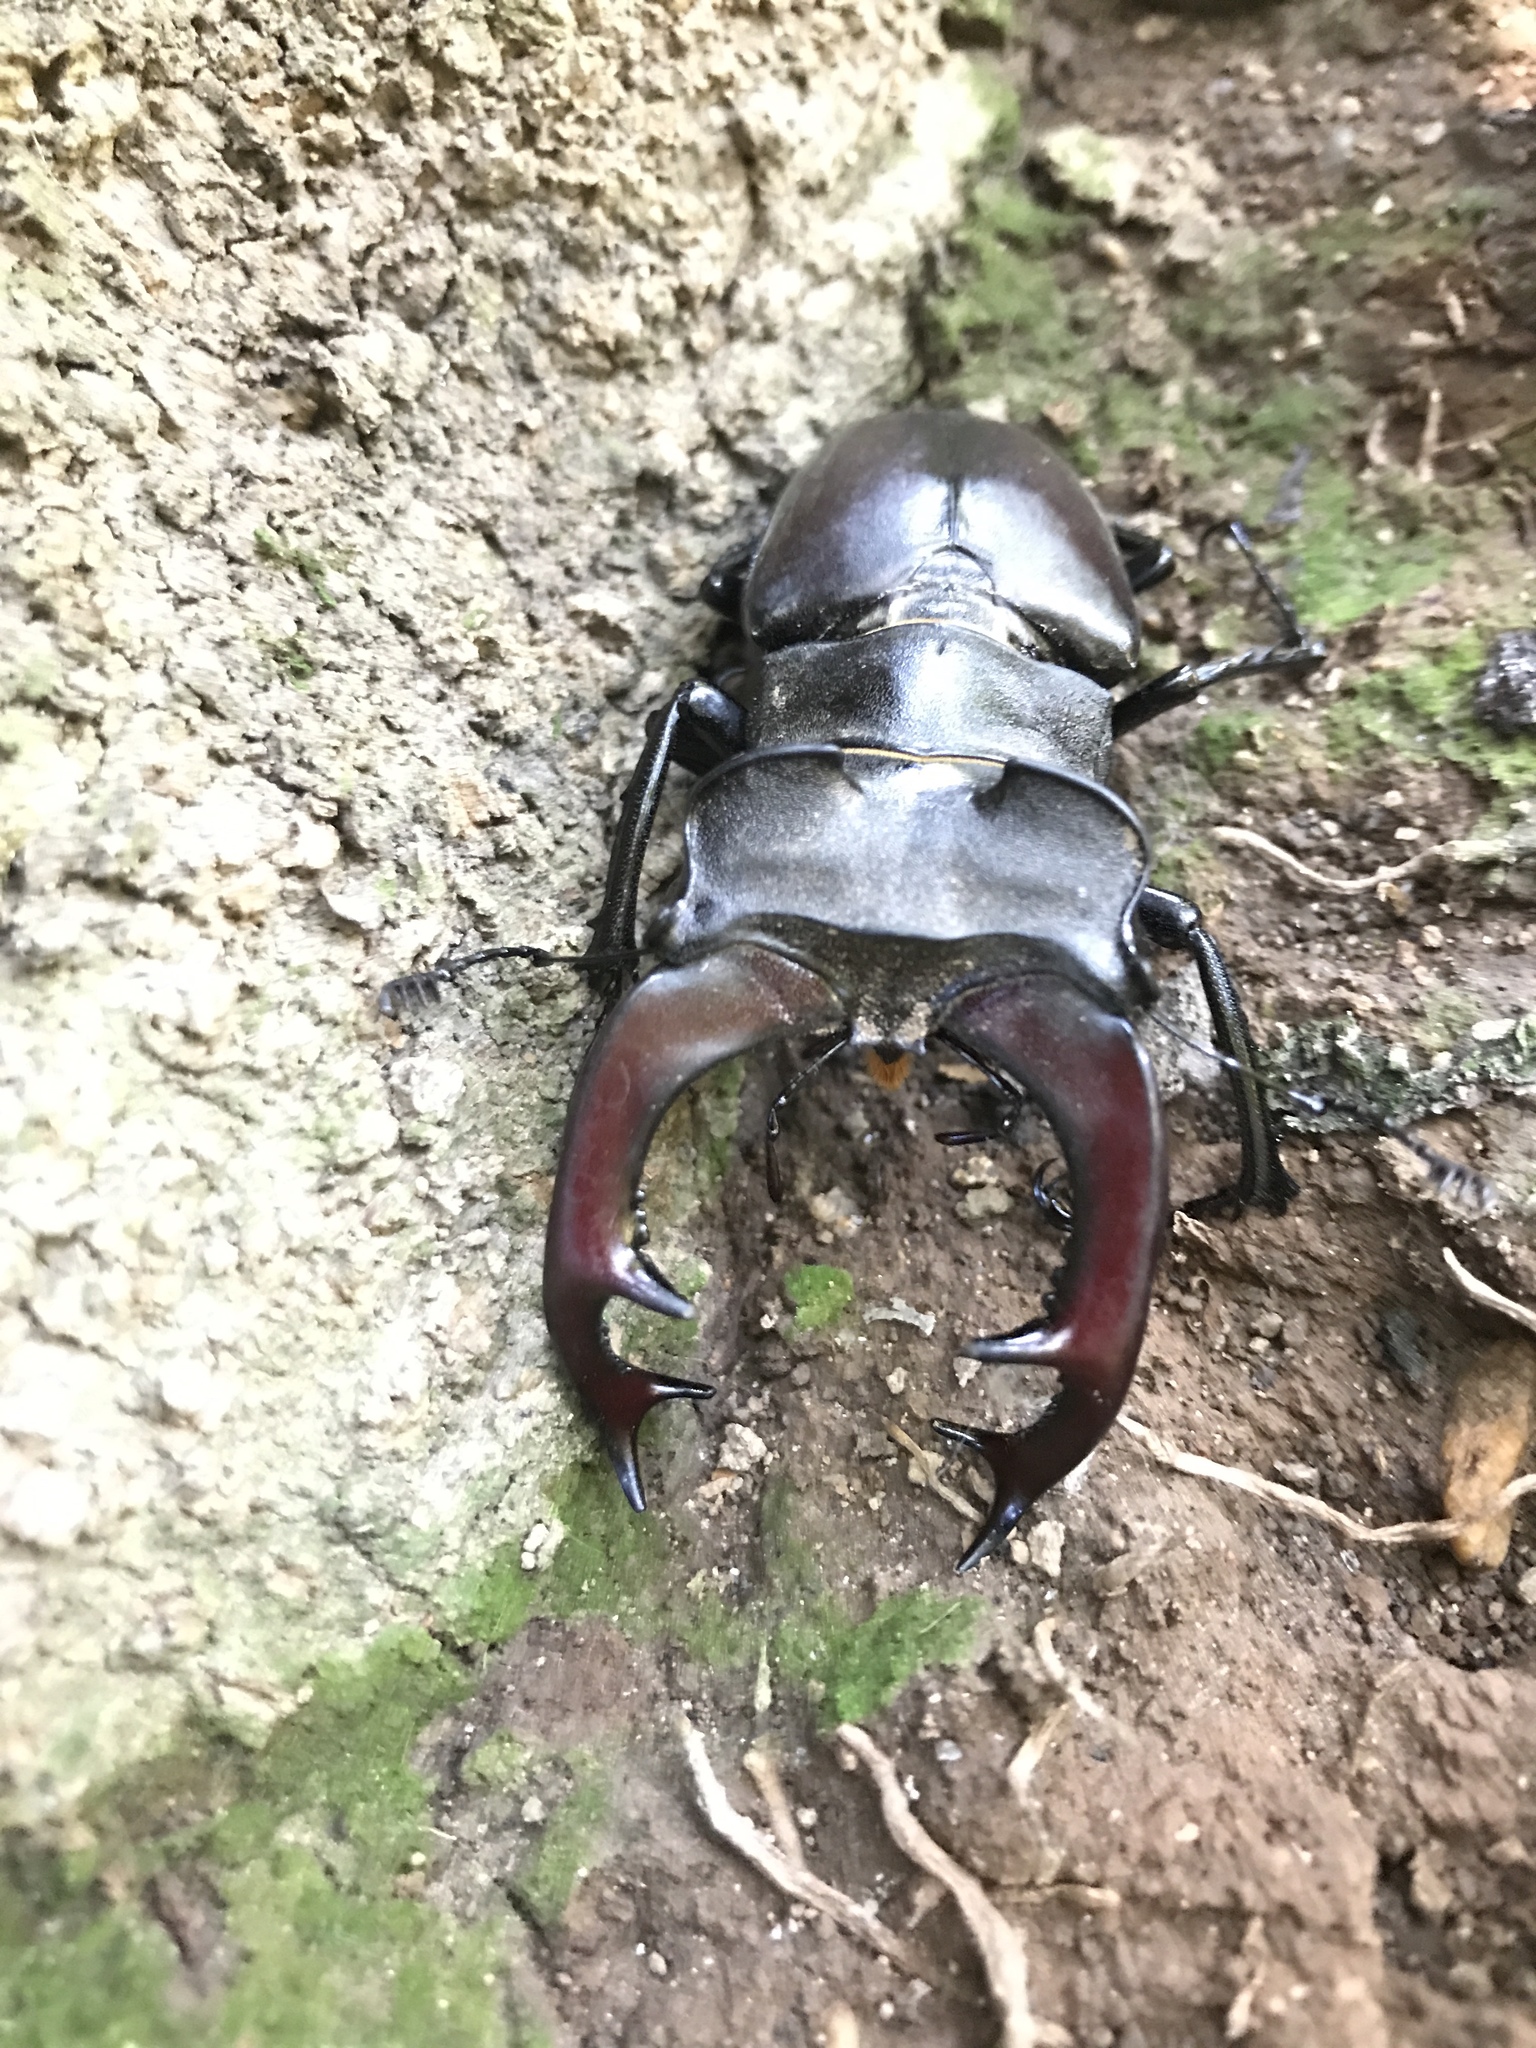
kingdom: Animalia
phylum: Arthropoda
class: Insecta
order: Coleoptera
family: Lucanidae
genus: Lucanus
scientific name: Lucanus cervus
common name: Stag beetle
